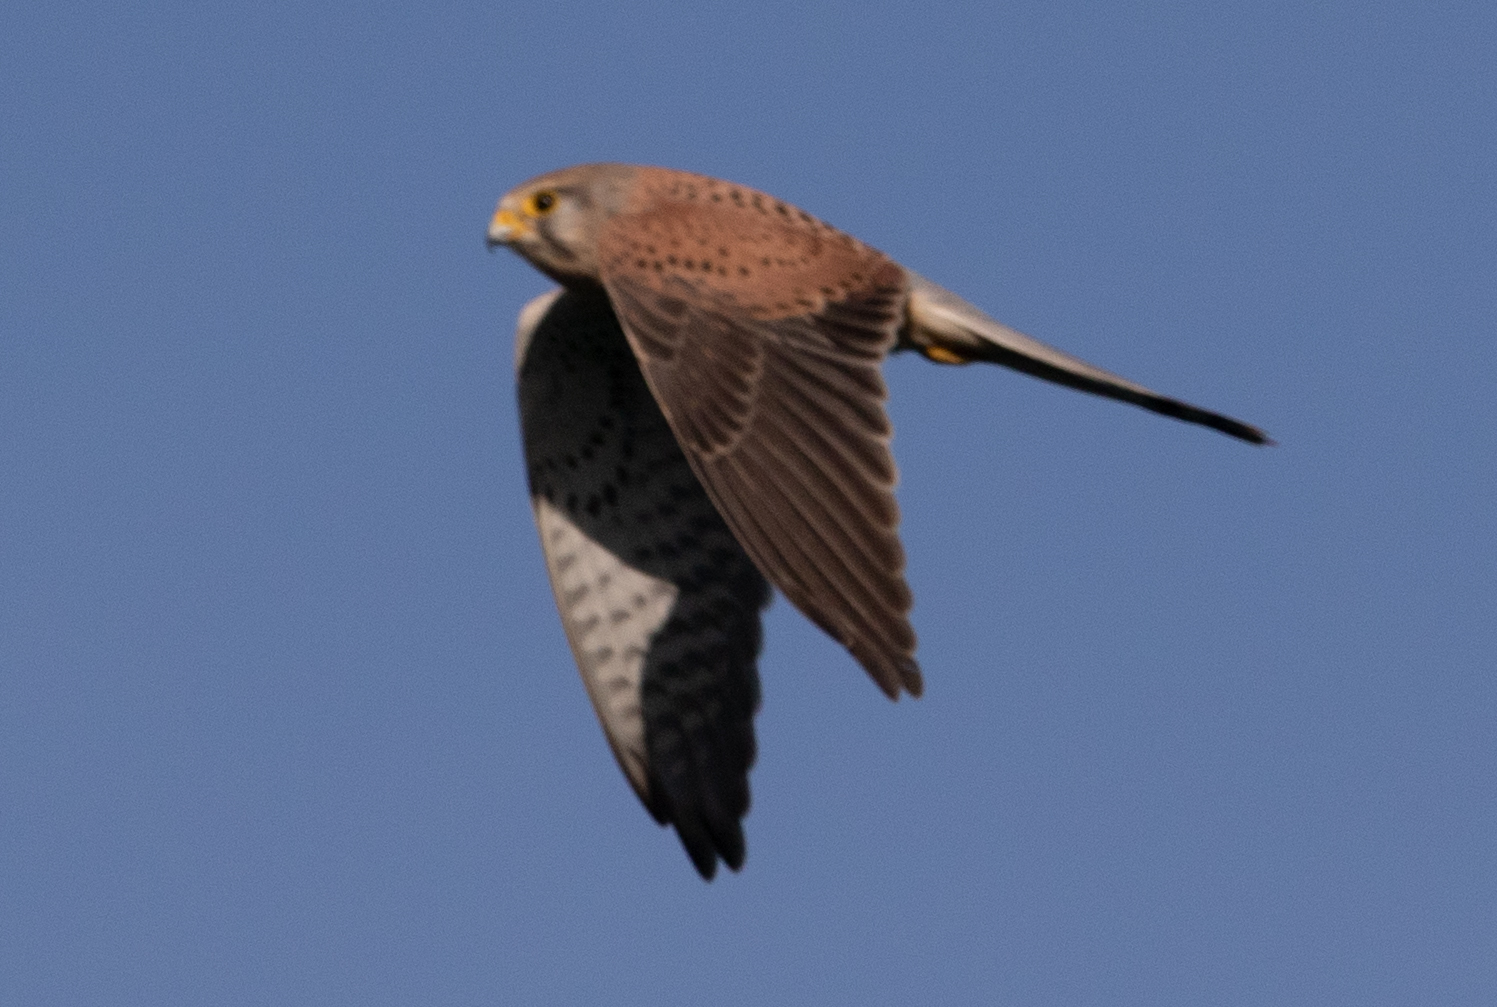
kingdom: Animalia
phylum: Chordata
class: Aves
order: Falconiformes
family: Falconidae
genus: Falco
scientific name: Falco tinnunculus
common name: Common kestrel
